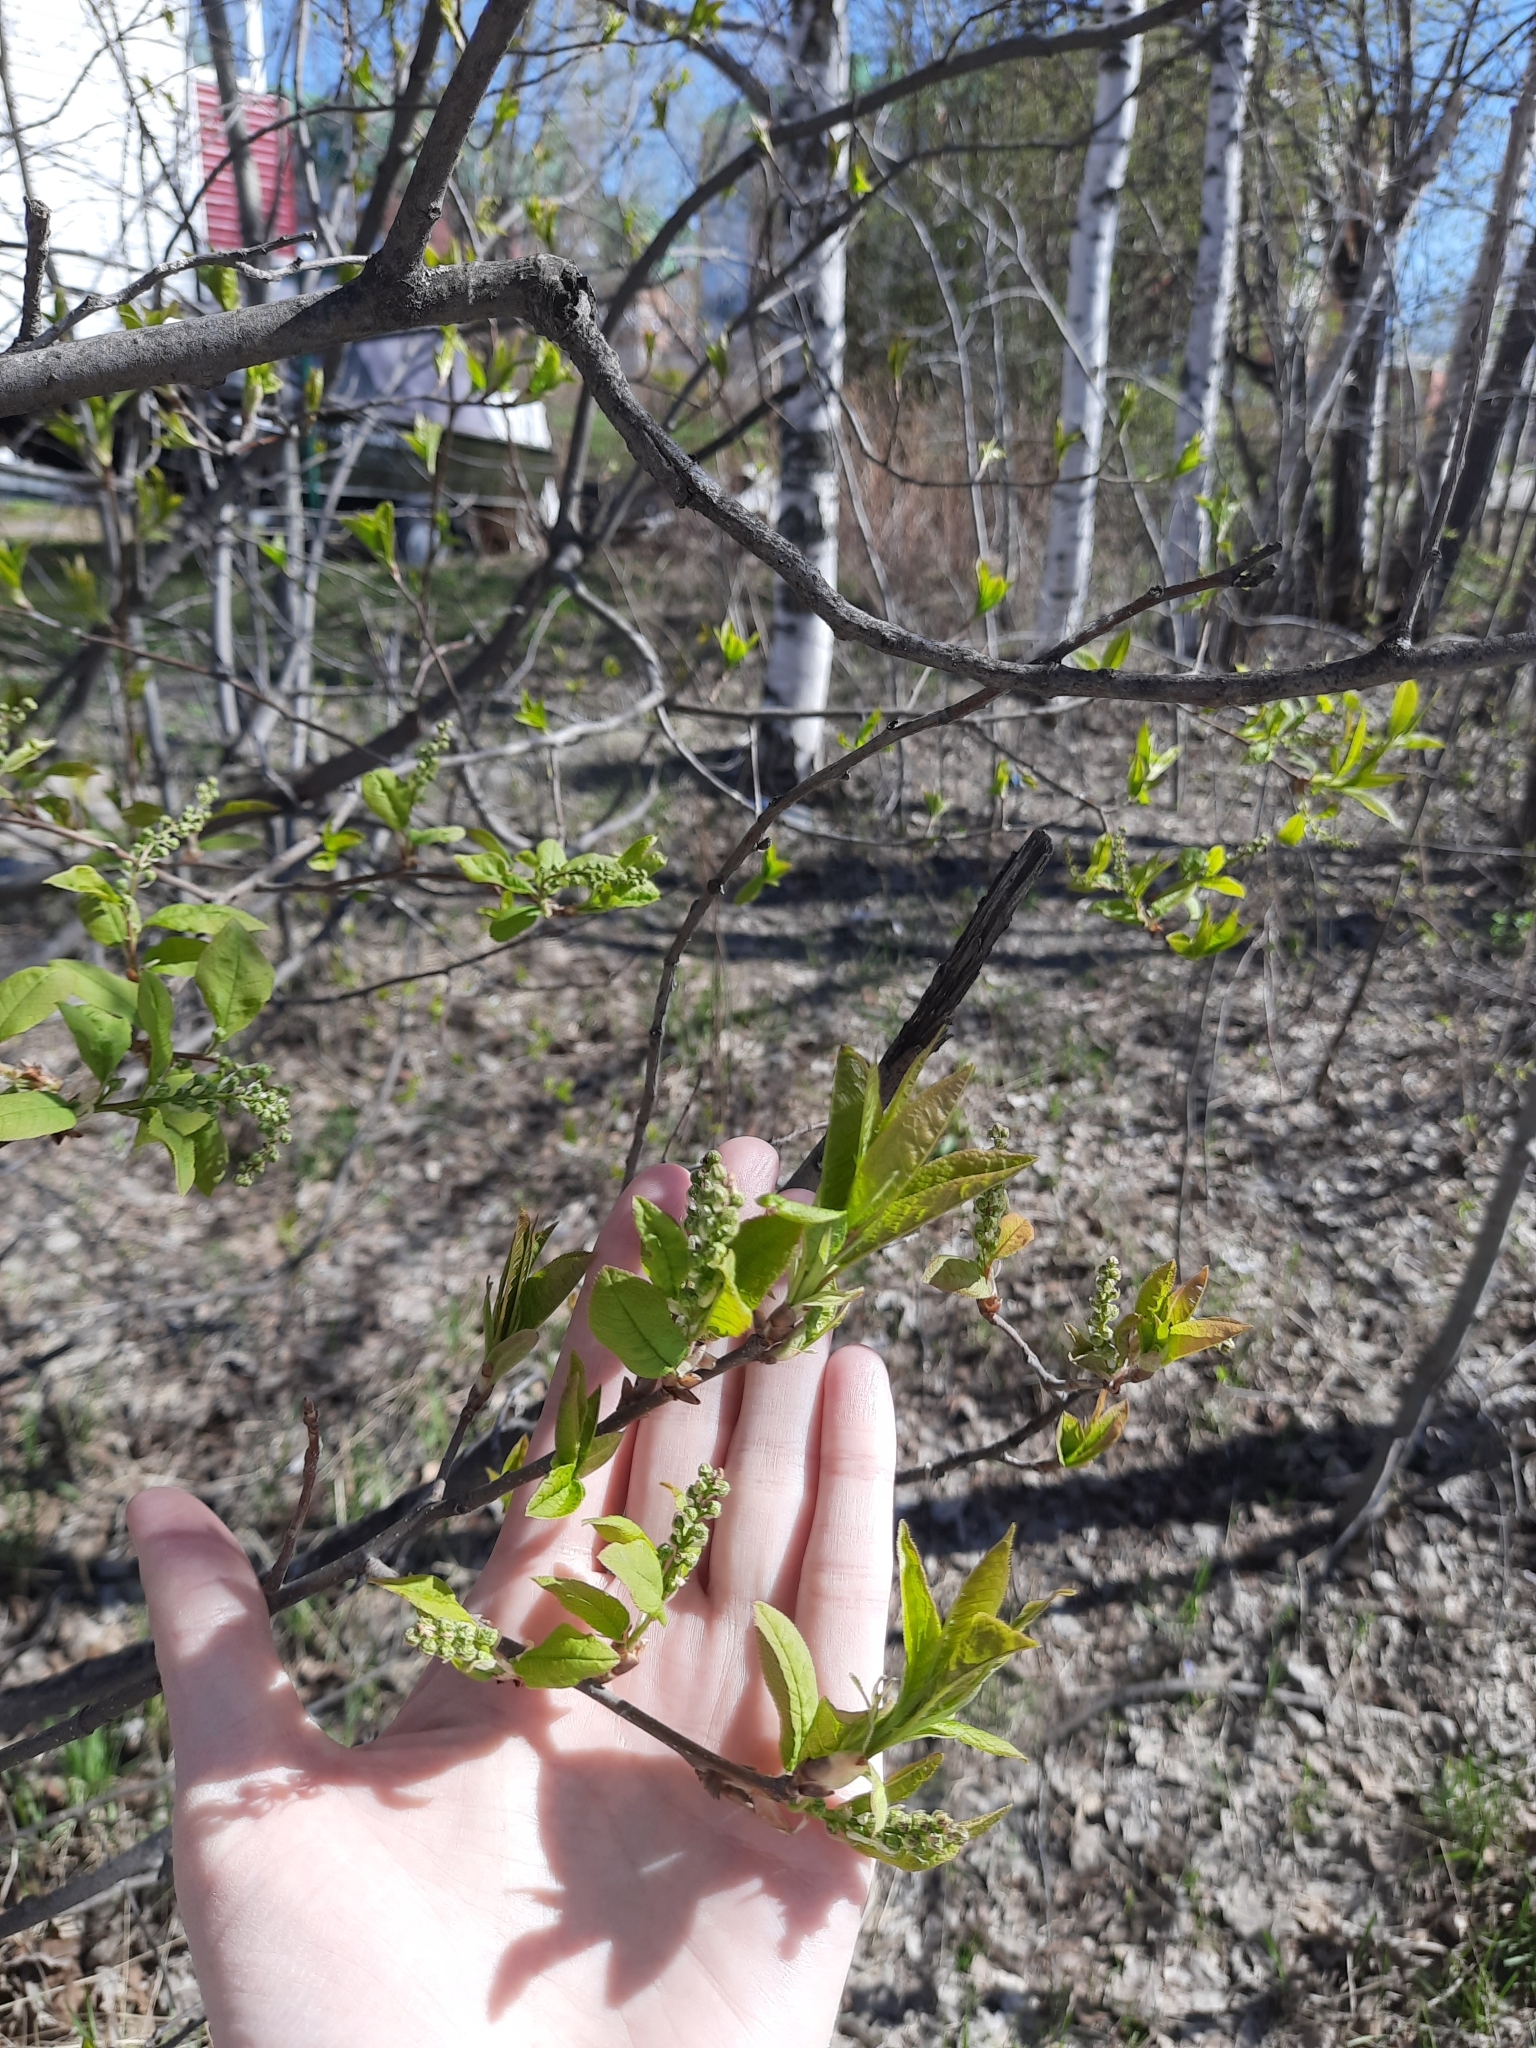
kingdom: Plantae
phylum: Tracheophyta
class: Magnoliopsida
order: Rosales
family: Rosaceae
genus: Prunus
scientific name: Prunus padus
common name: Bird cherry
